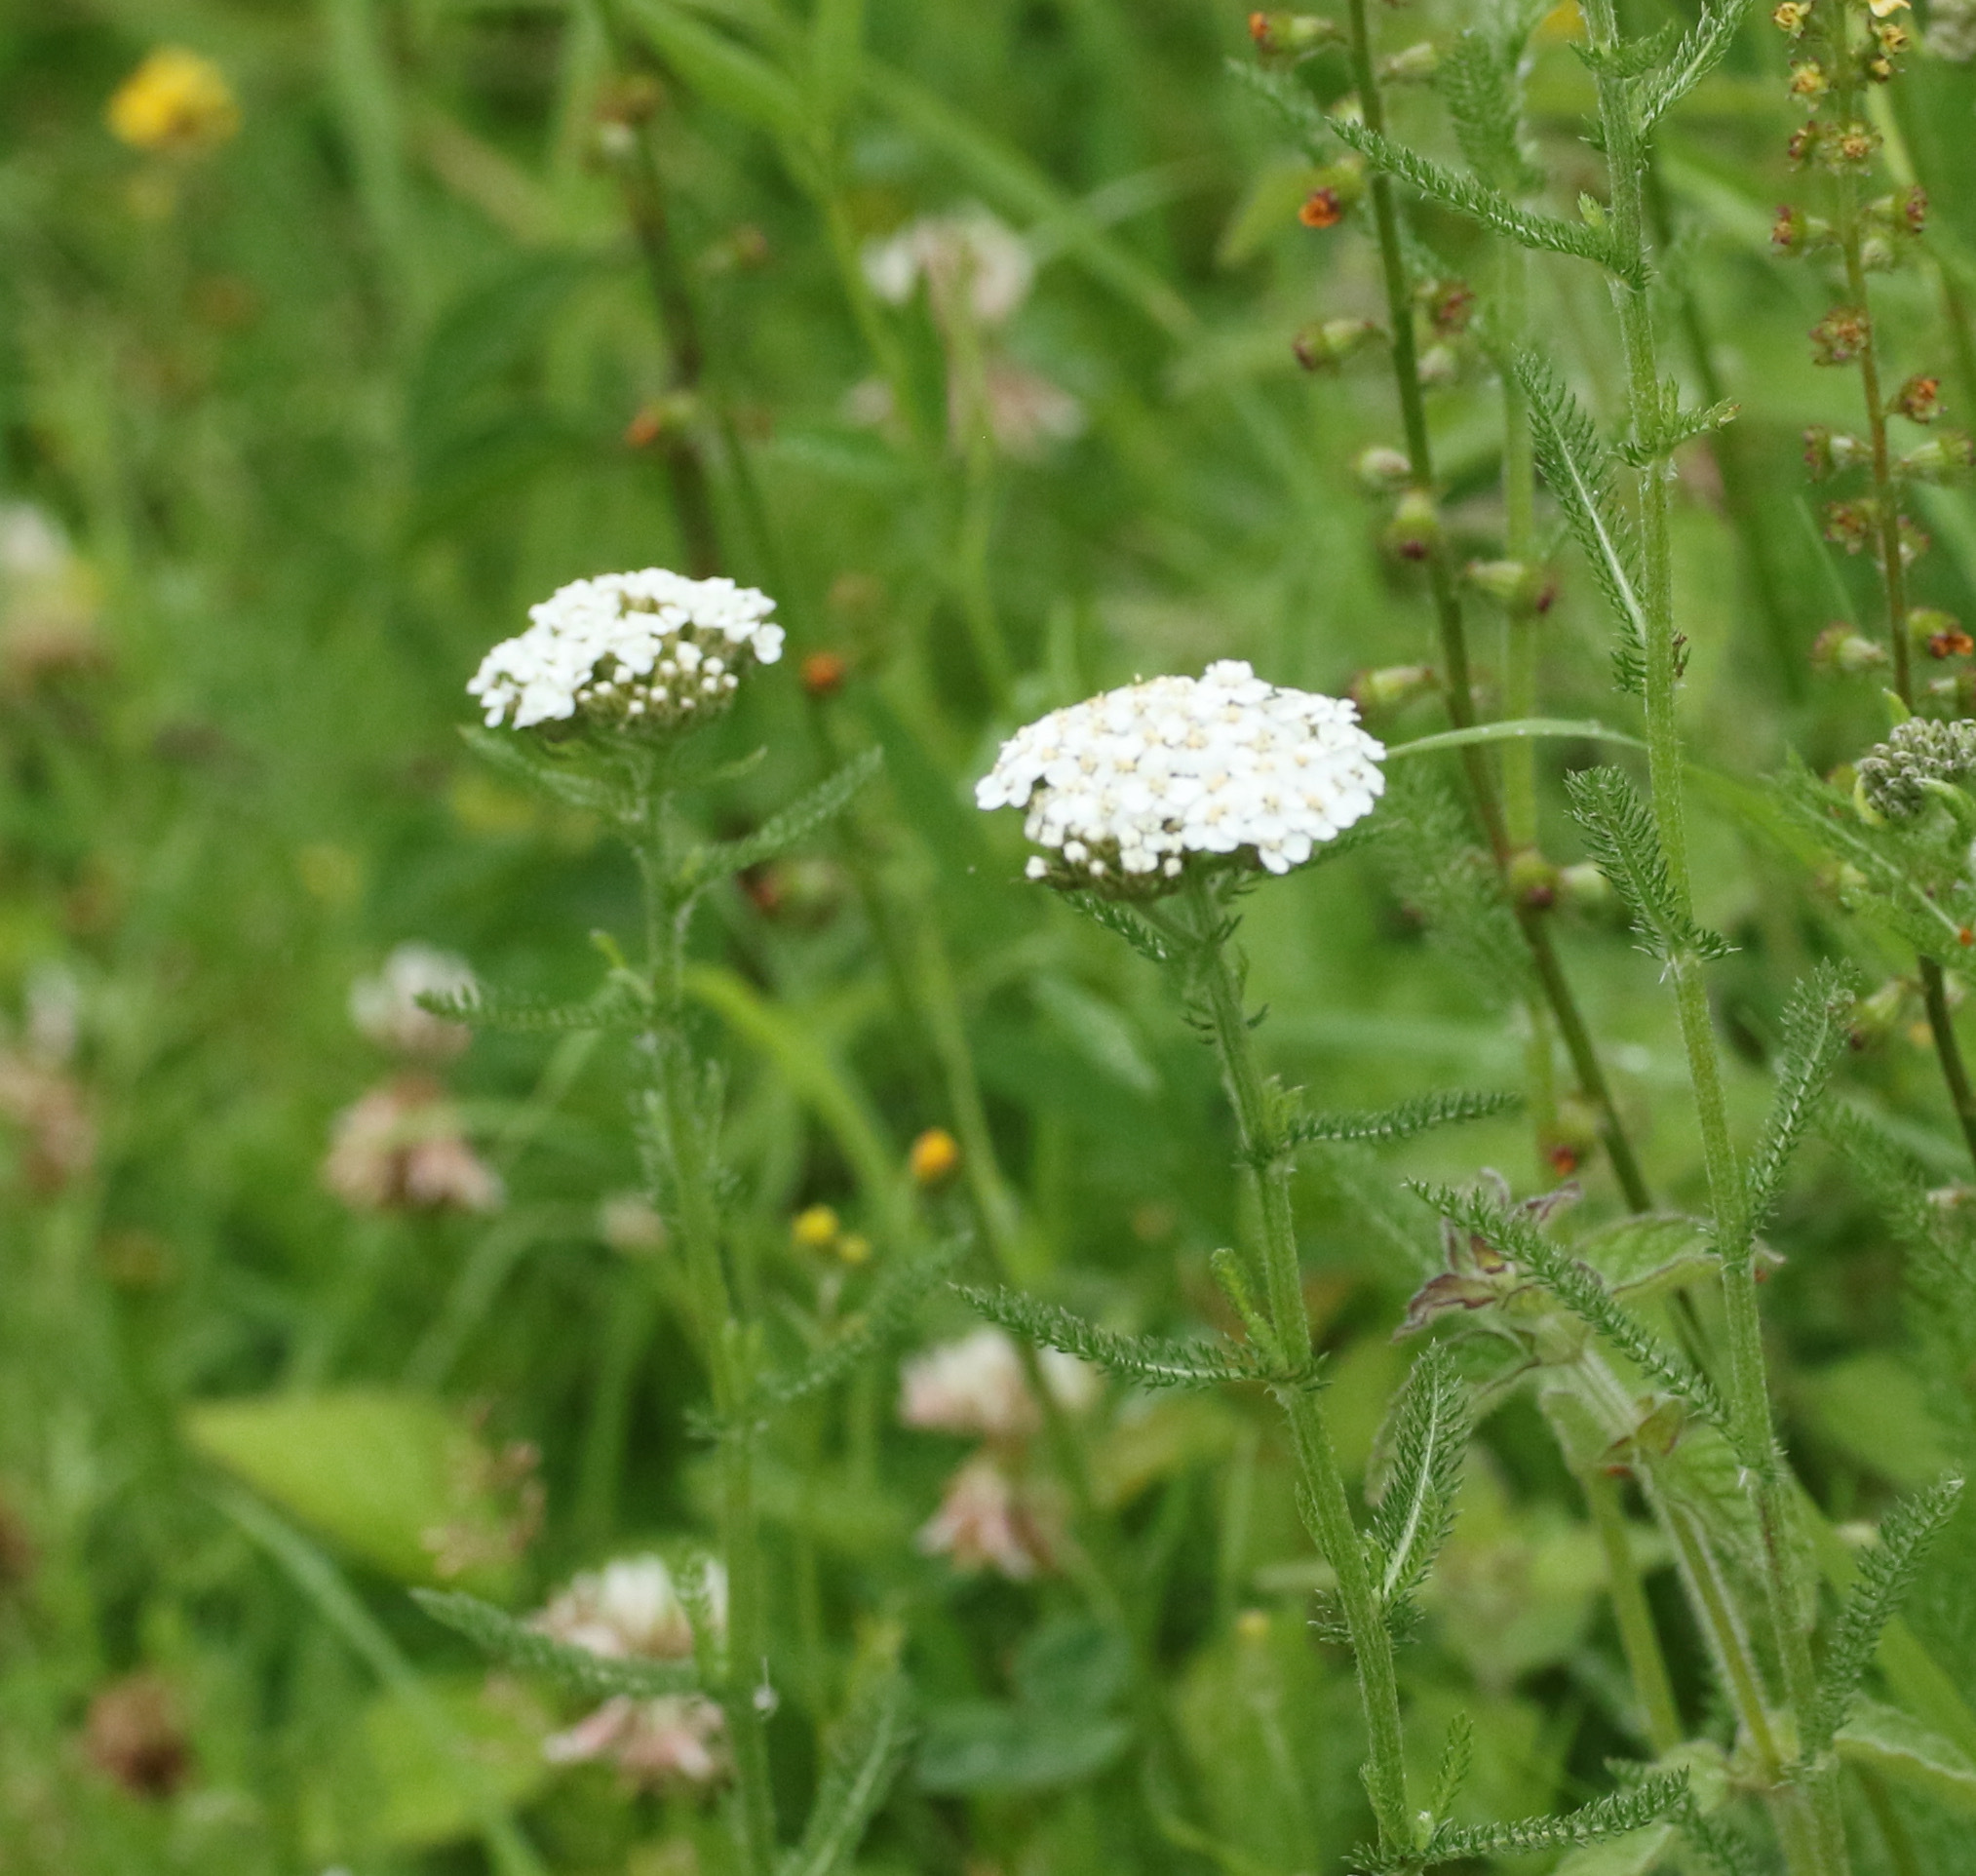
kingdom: Plantae
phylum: Tracheophyta
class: Magnoliopsida
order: Asterales
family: Asteraceae
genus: Achillea
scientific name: Achillea millefolium
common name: Yarrow
